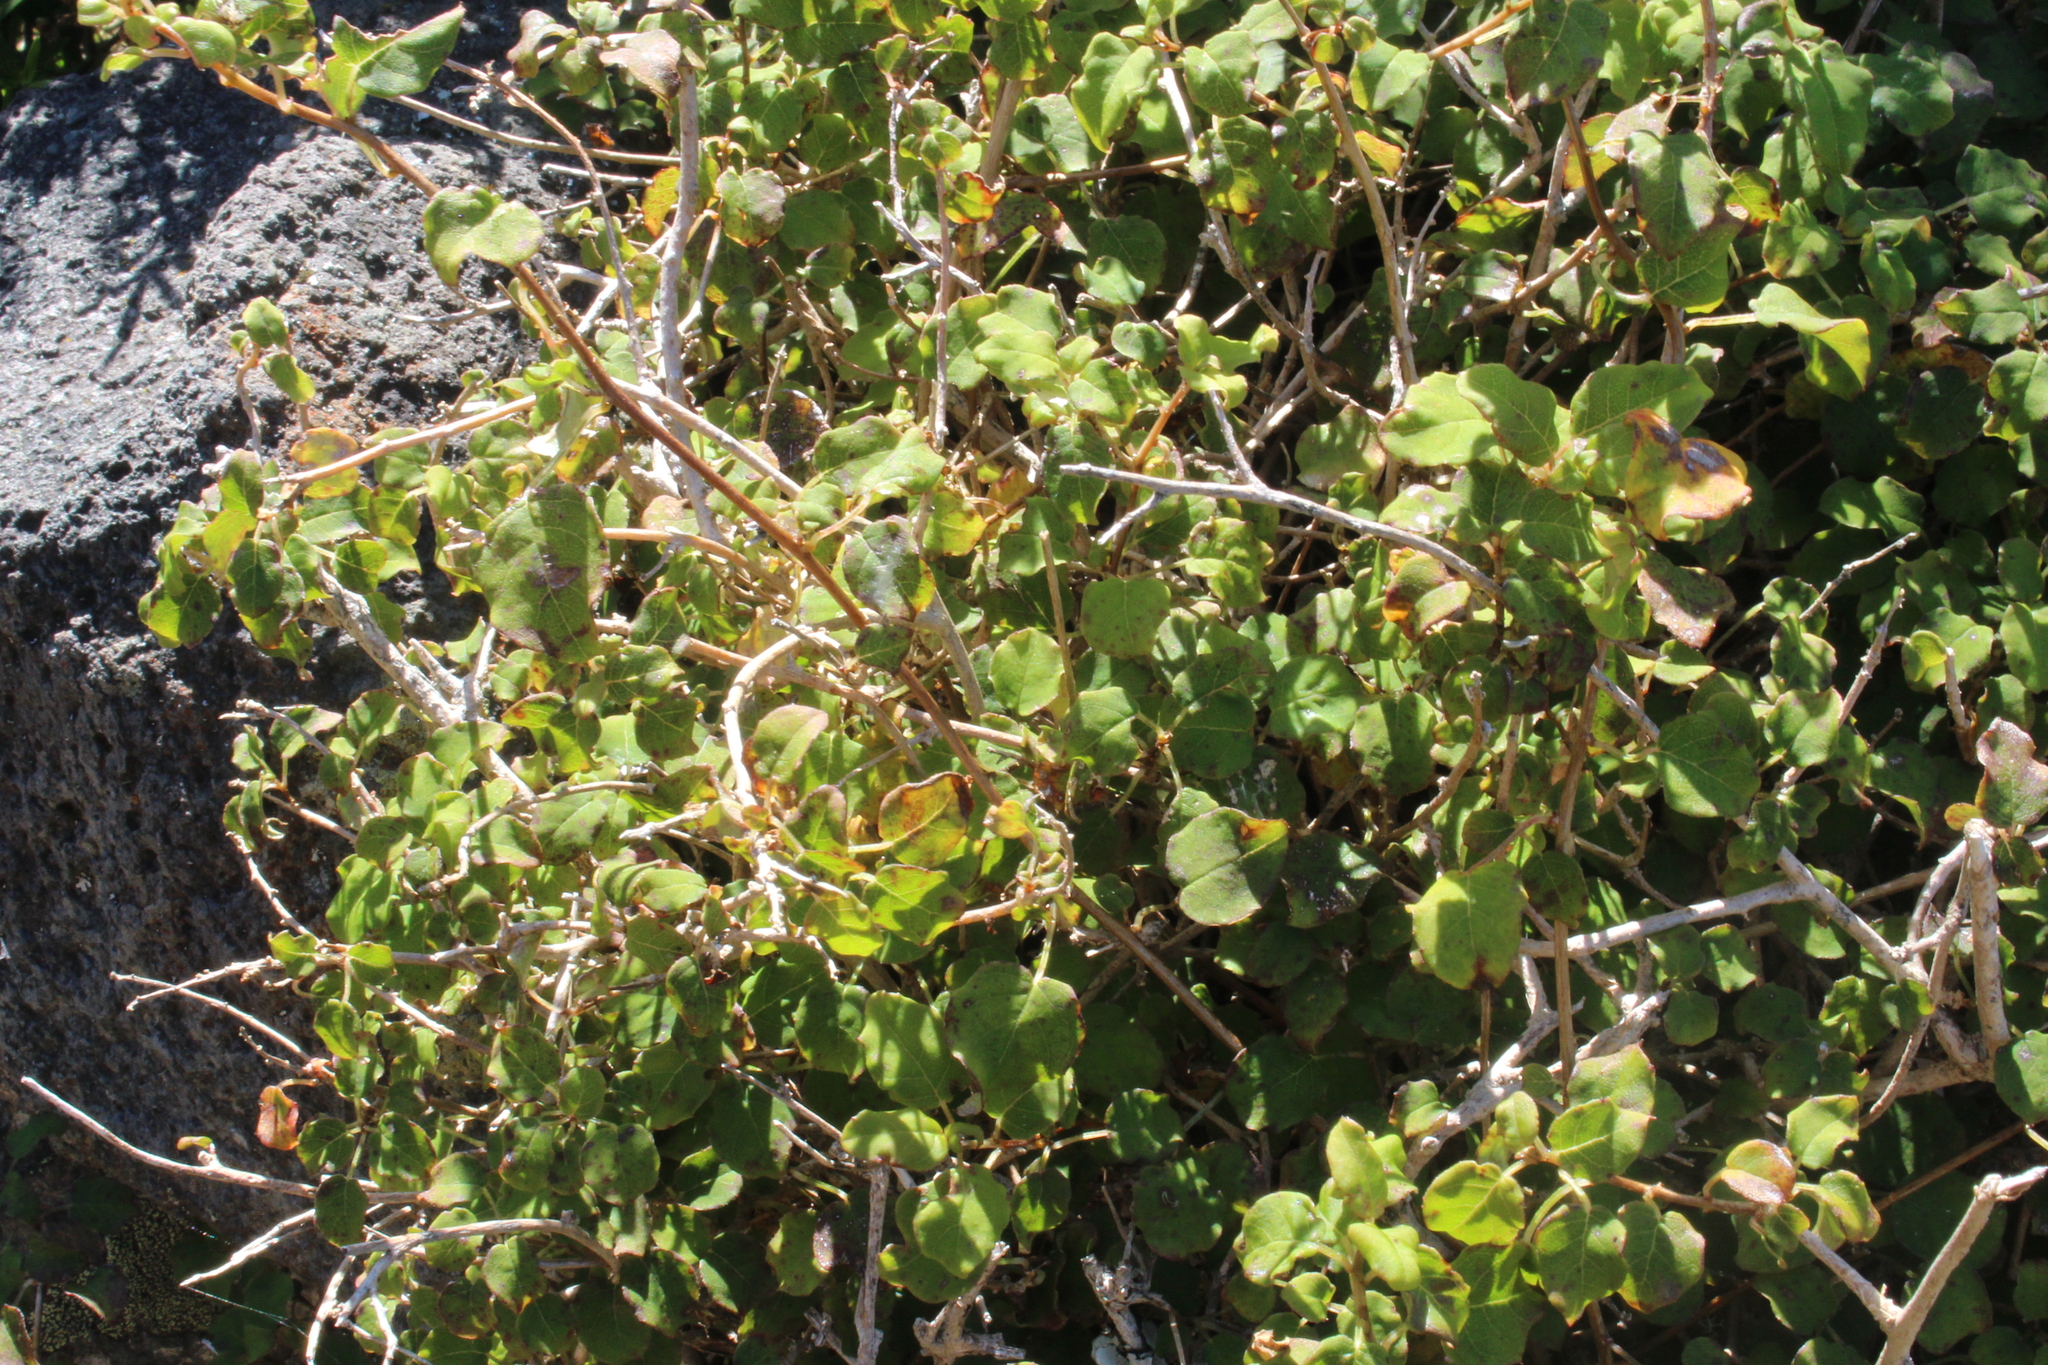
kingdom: Plantae
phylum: Tracheophyta
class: Magnoliopsida
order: Myrtales
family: Onagraceae
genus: Fuchsia
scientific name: Fuchsia perscandens
